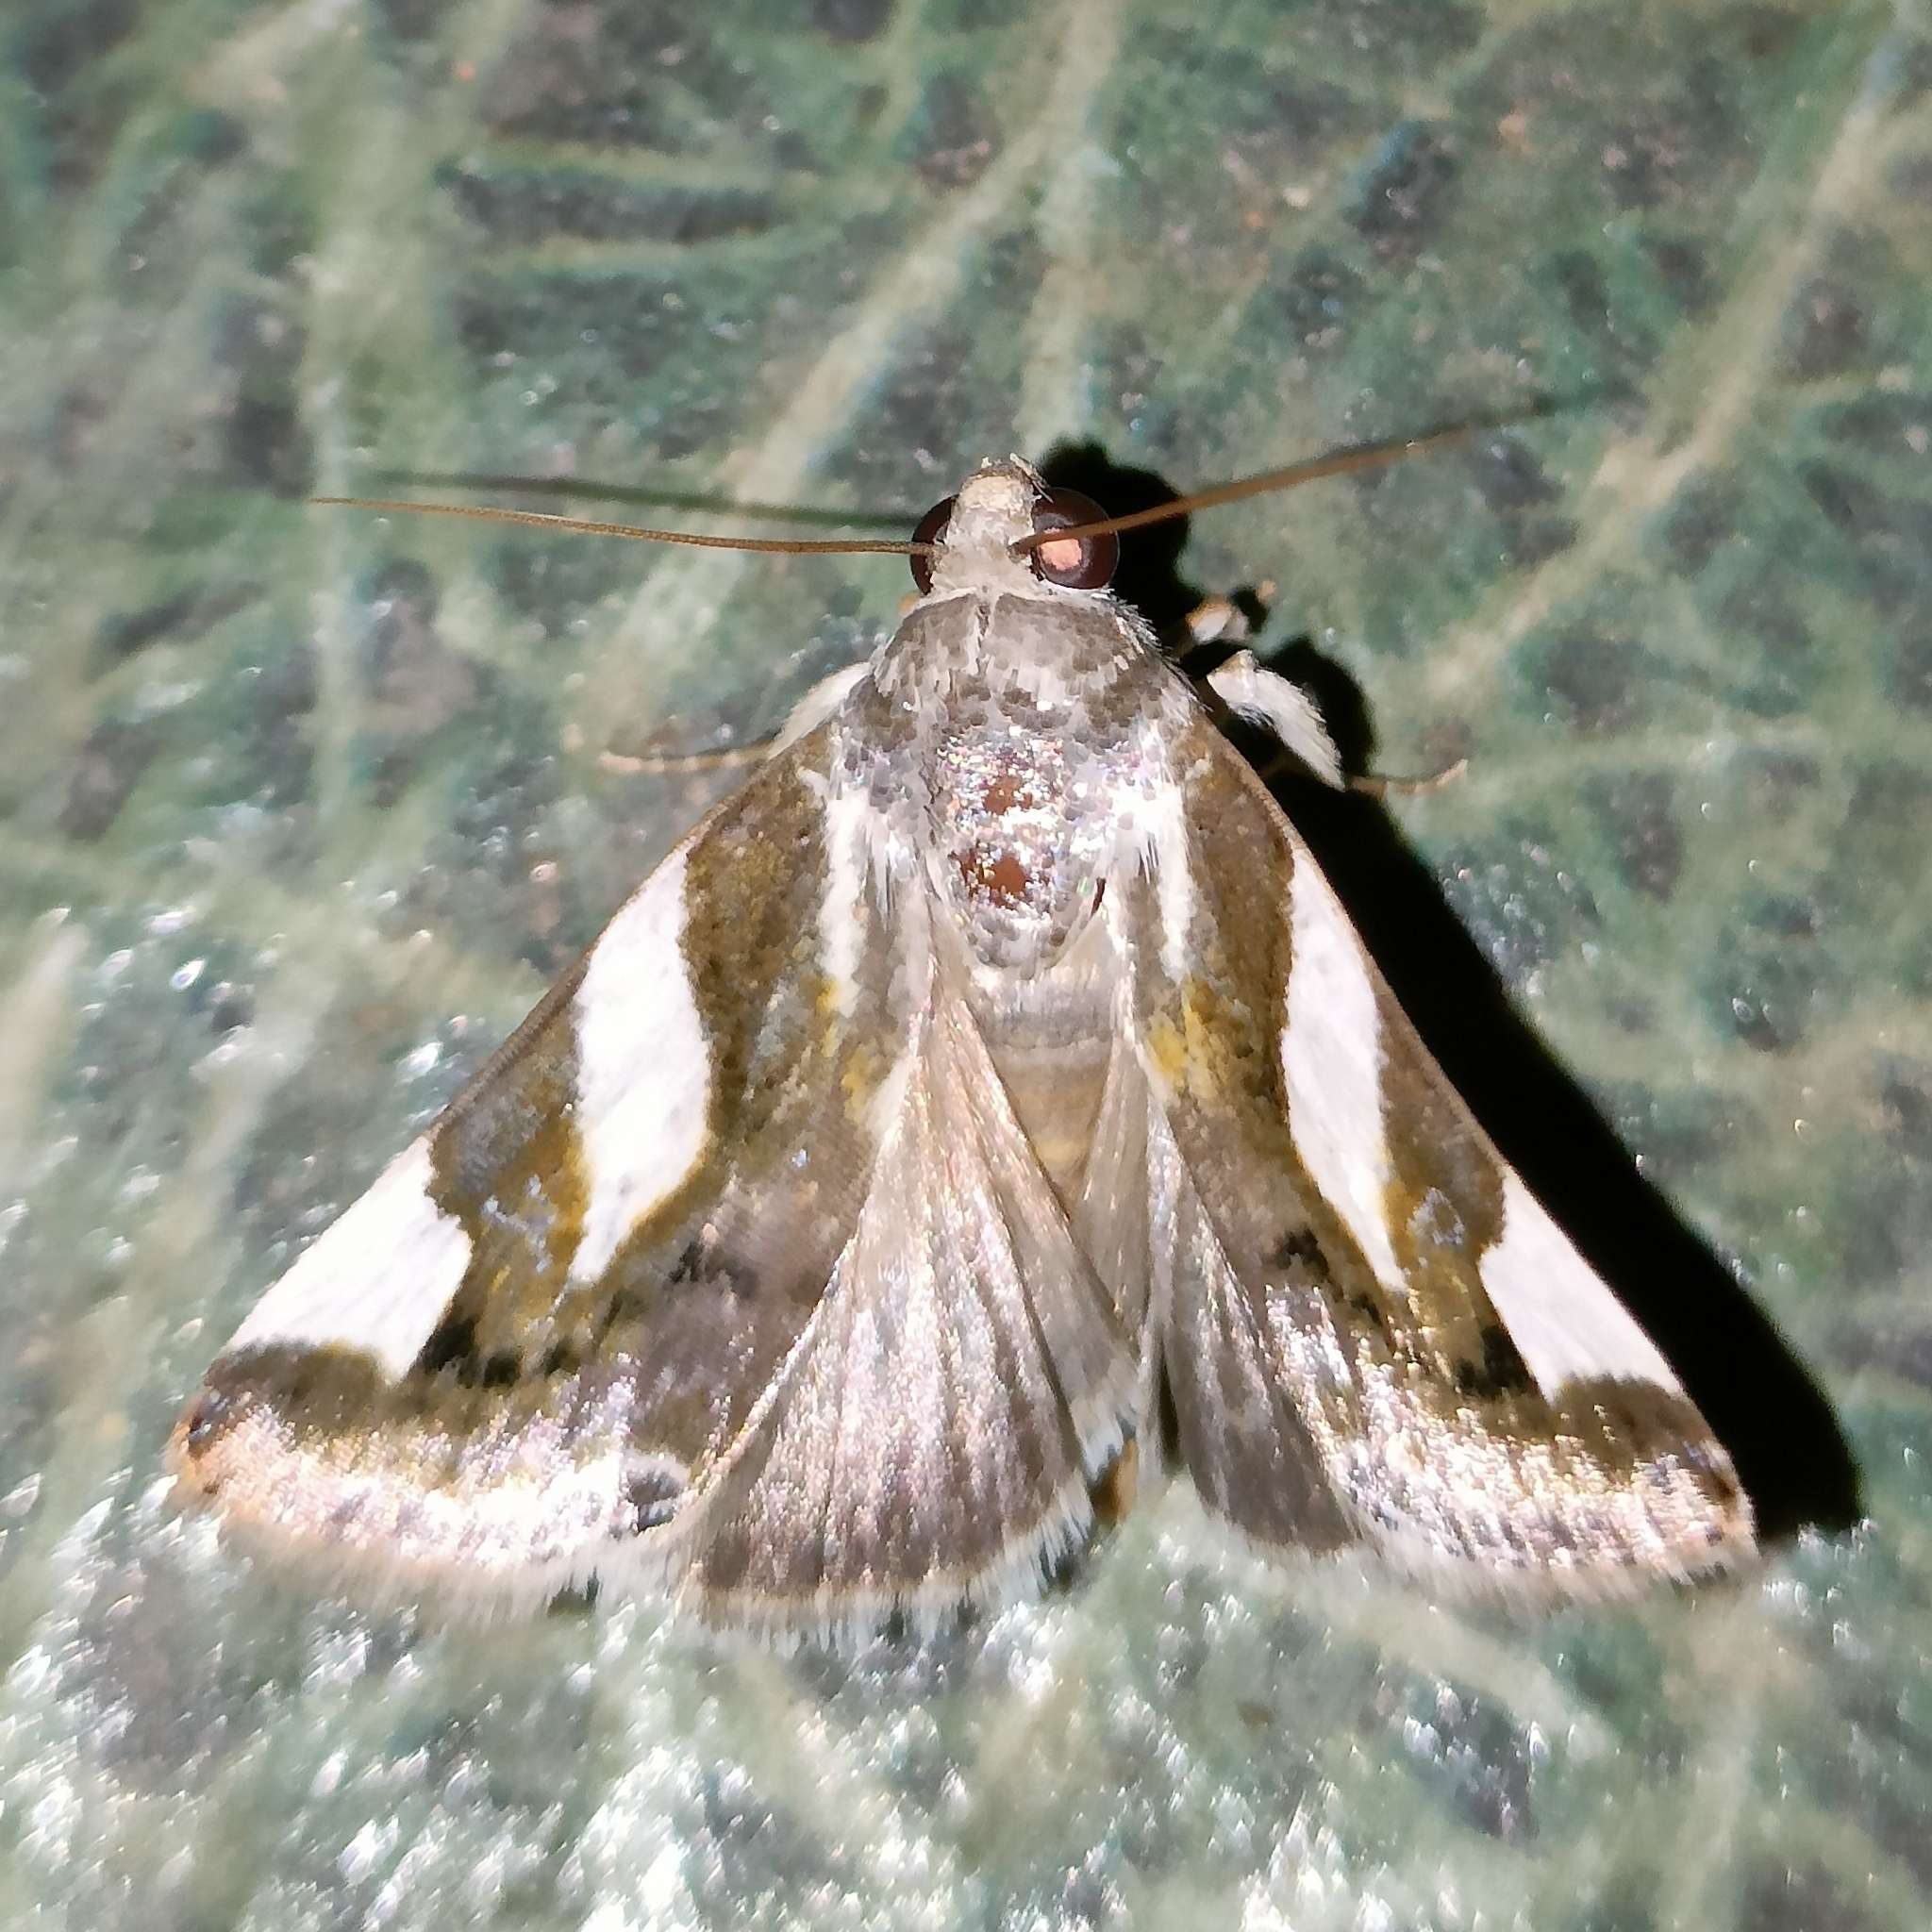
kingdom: Animalia
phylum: Arthropoda
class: Insecta
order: Lepidoptera
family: Noctuidae
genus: Acontia
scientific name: Acontia catenula
